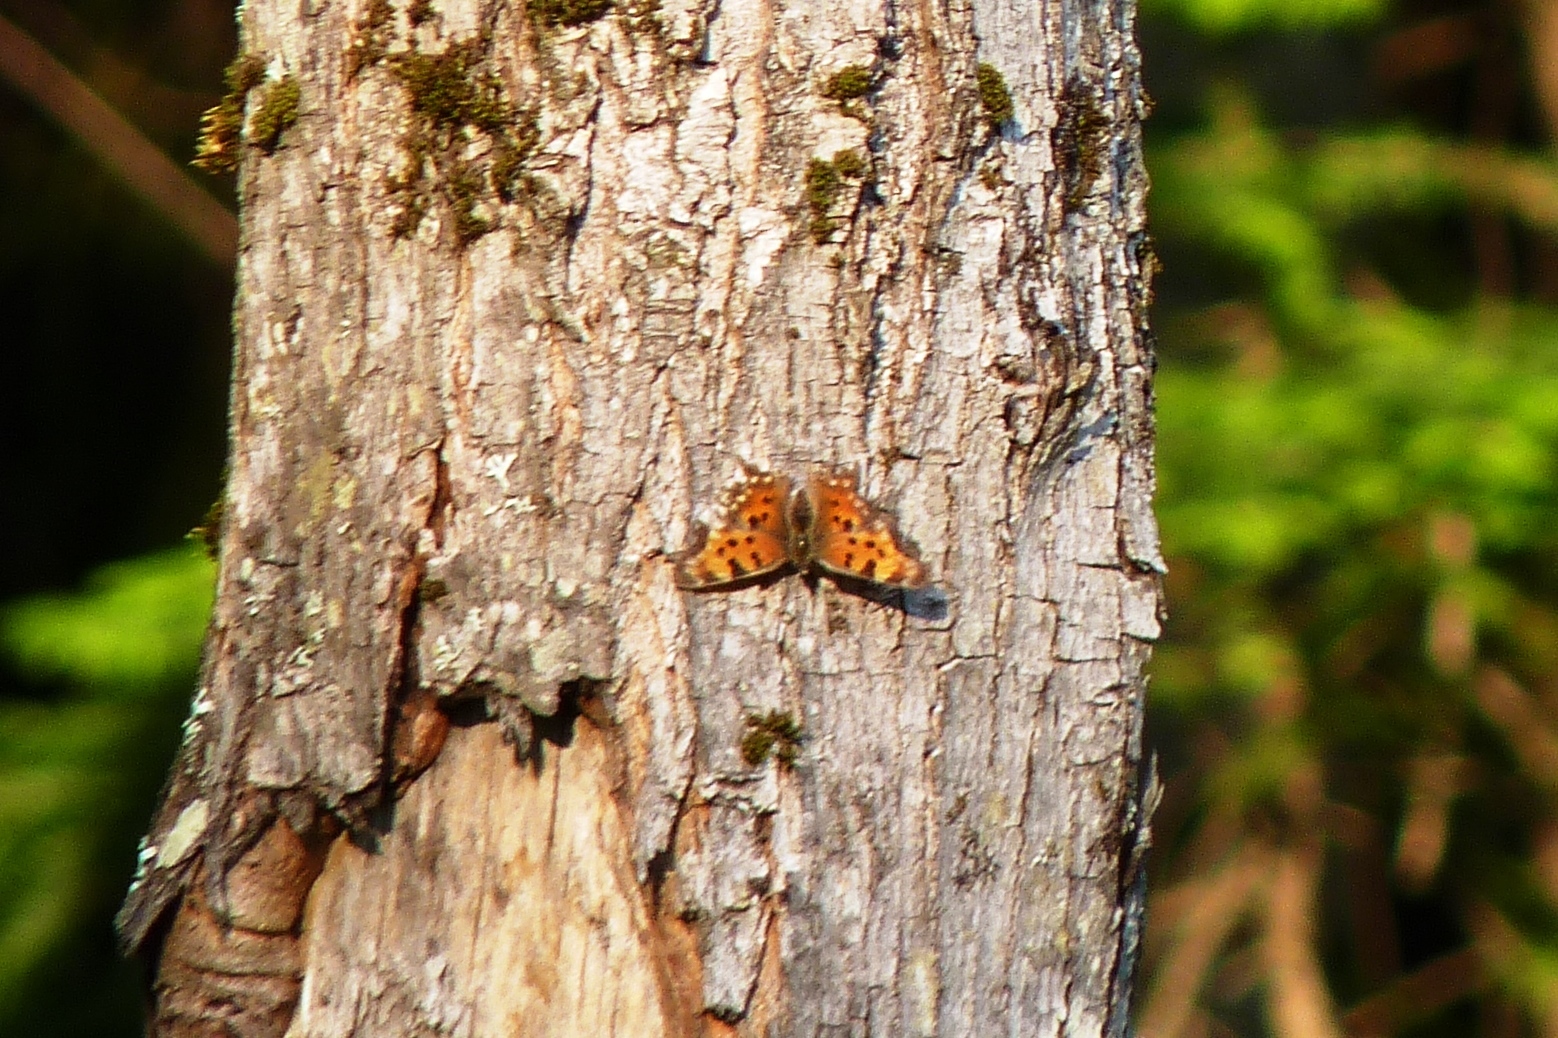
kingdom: Animalia
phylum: Arthropoda
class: Insecta
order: Lepidoptera
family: Nymphalidae
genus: Polygonia
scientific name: Polygonia faunus
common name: Green comma
